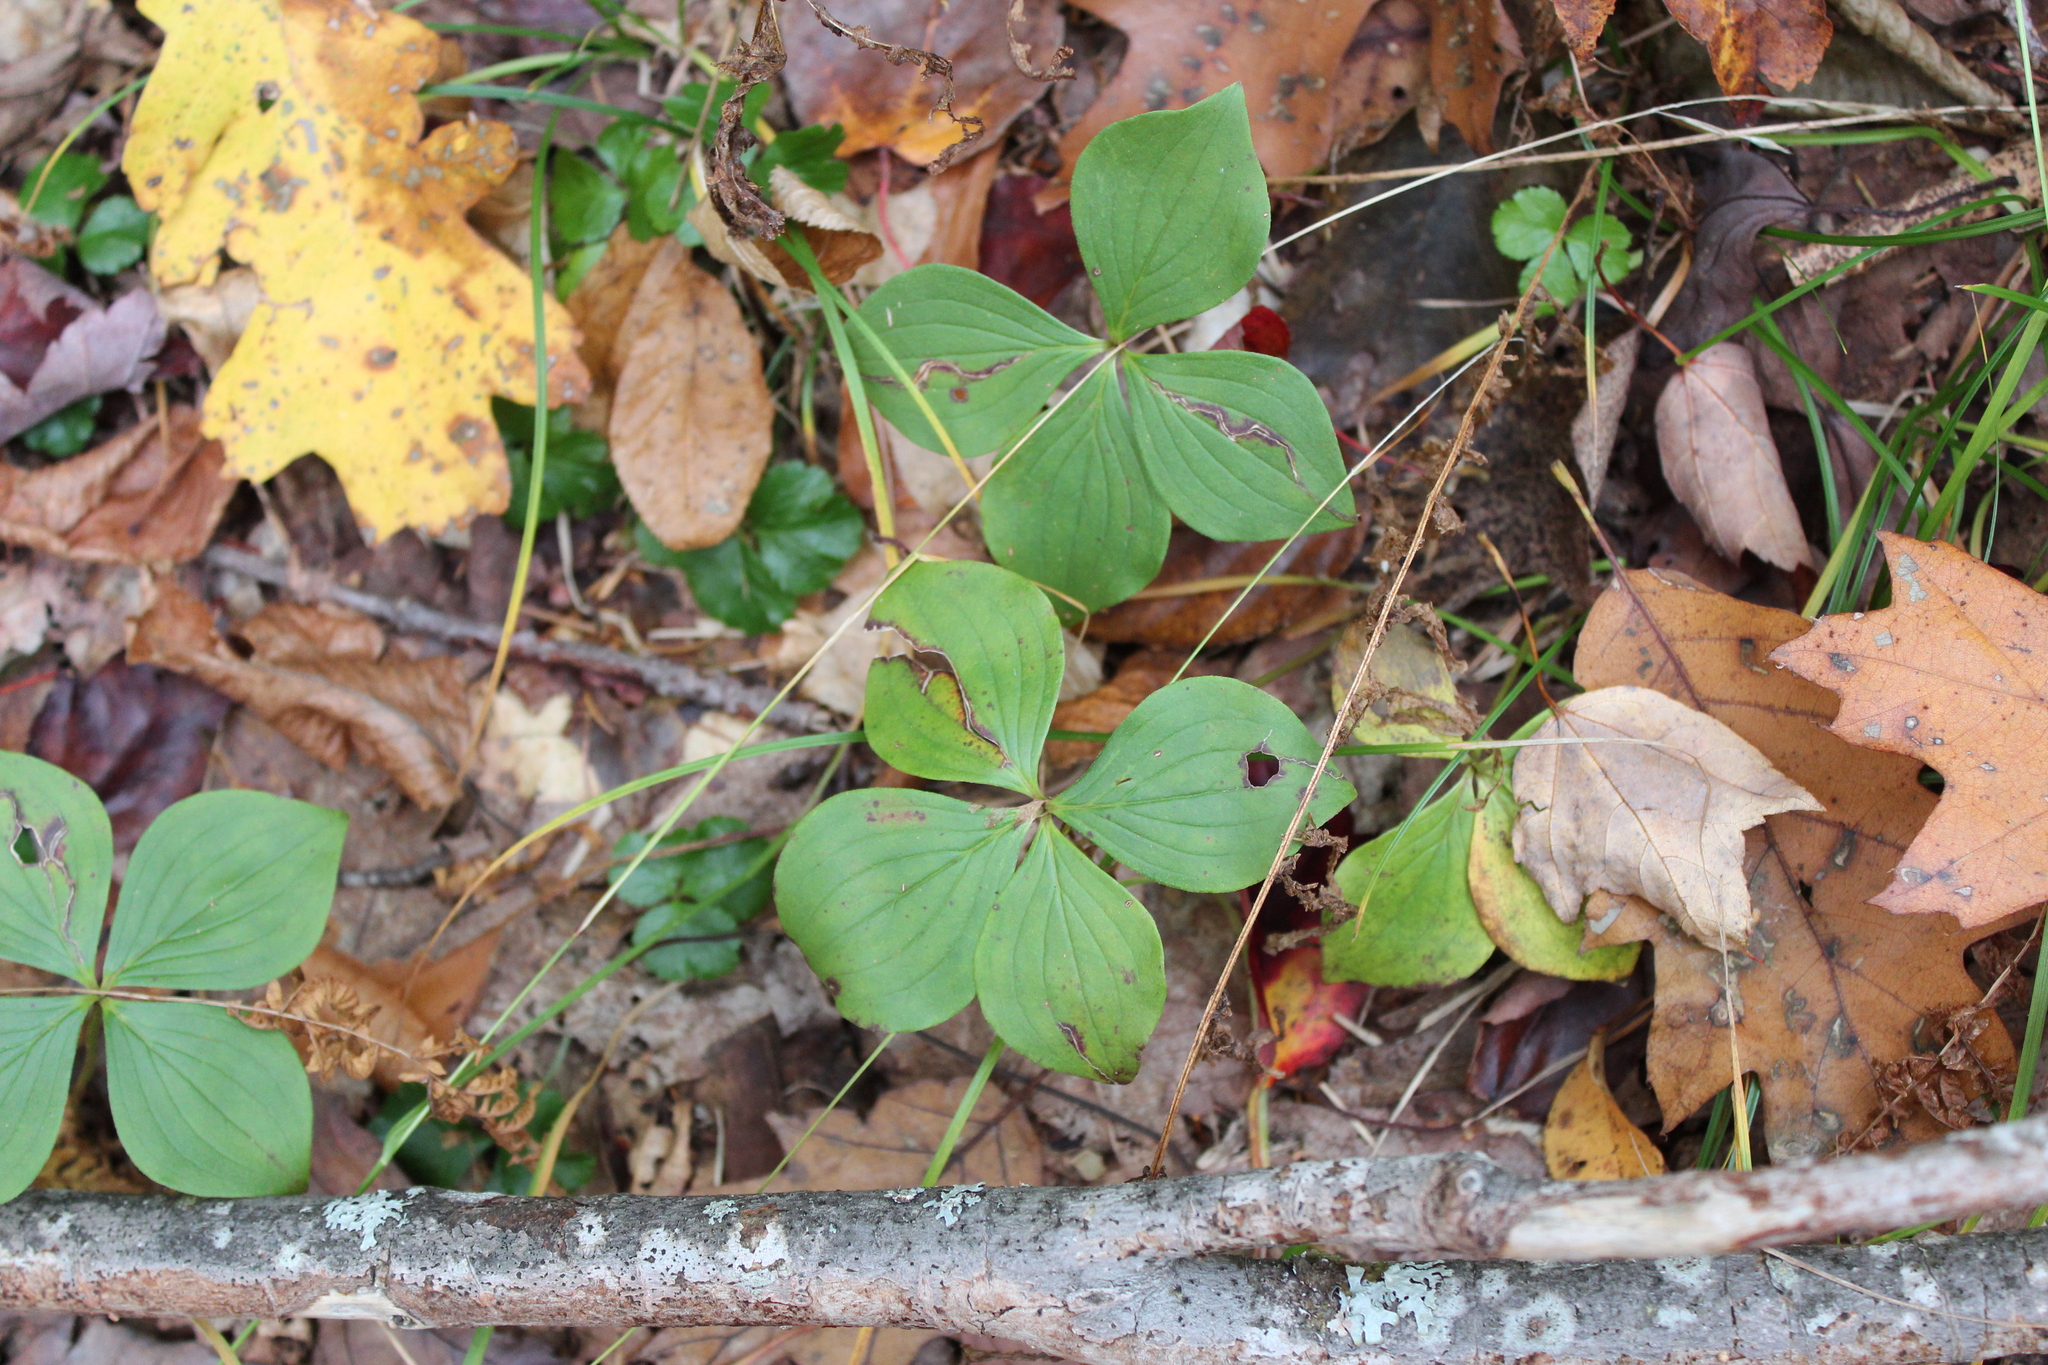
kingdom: Plantae
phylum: Tracheophyta
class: Magnoliopsida
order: Cornales
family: Cornaceae
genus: Cornus
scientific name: Cornus canadensis
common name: Creeping dogwood
